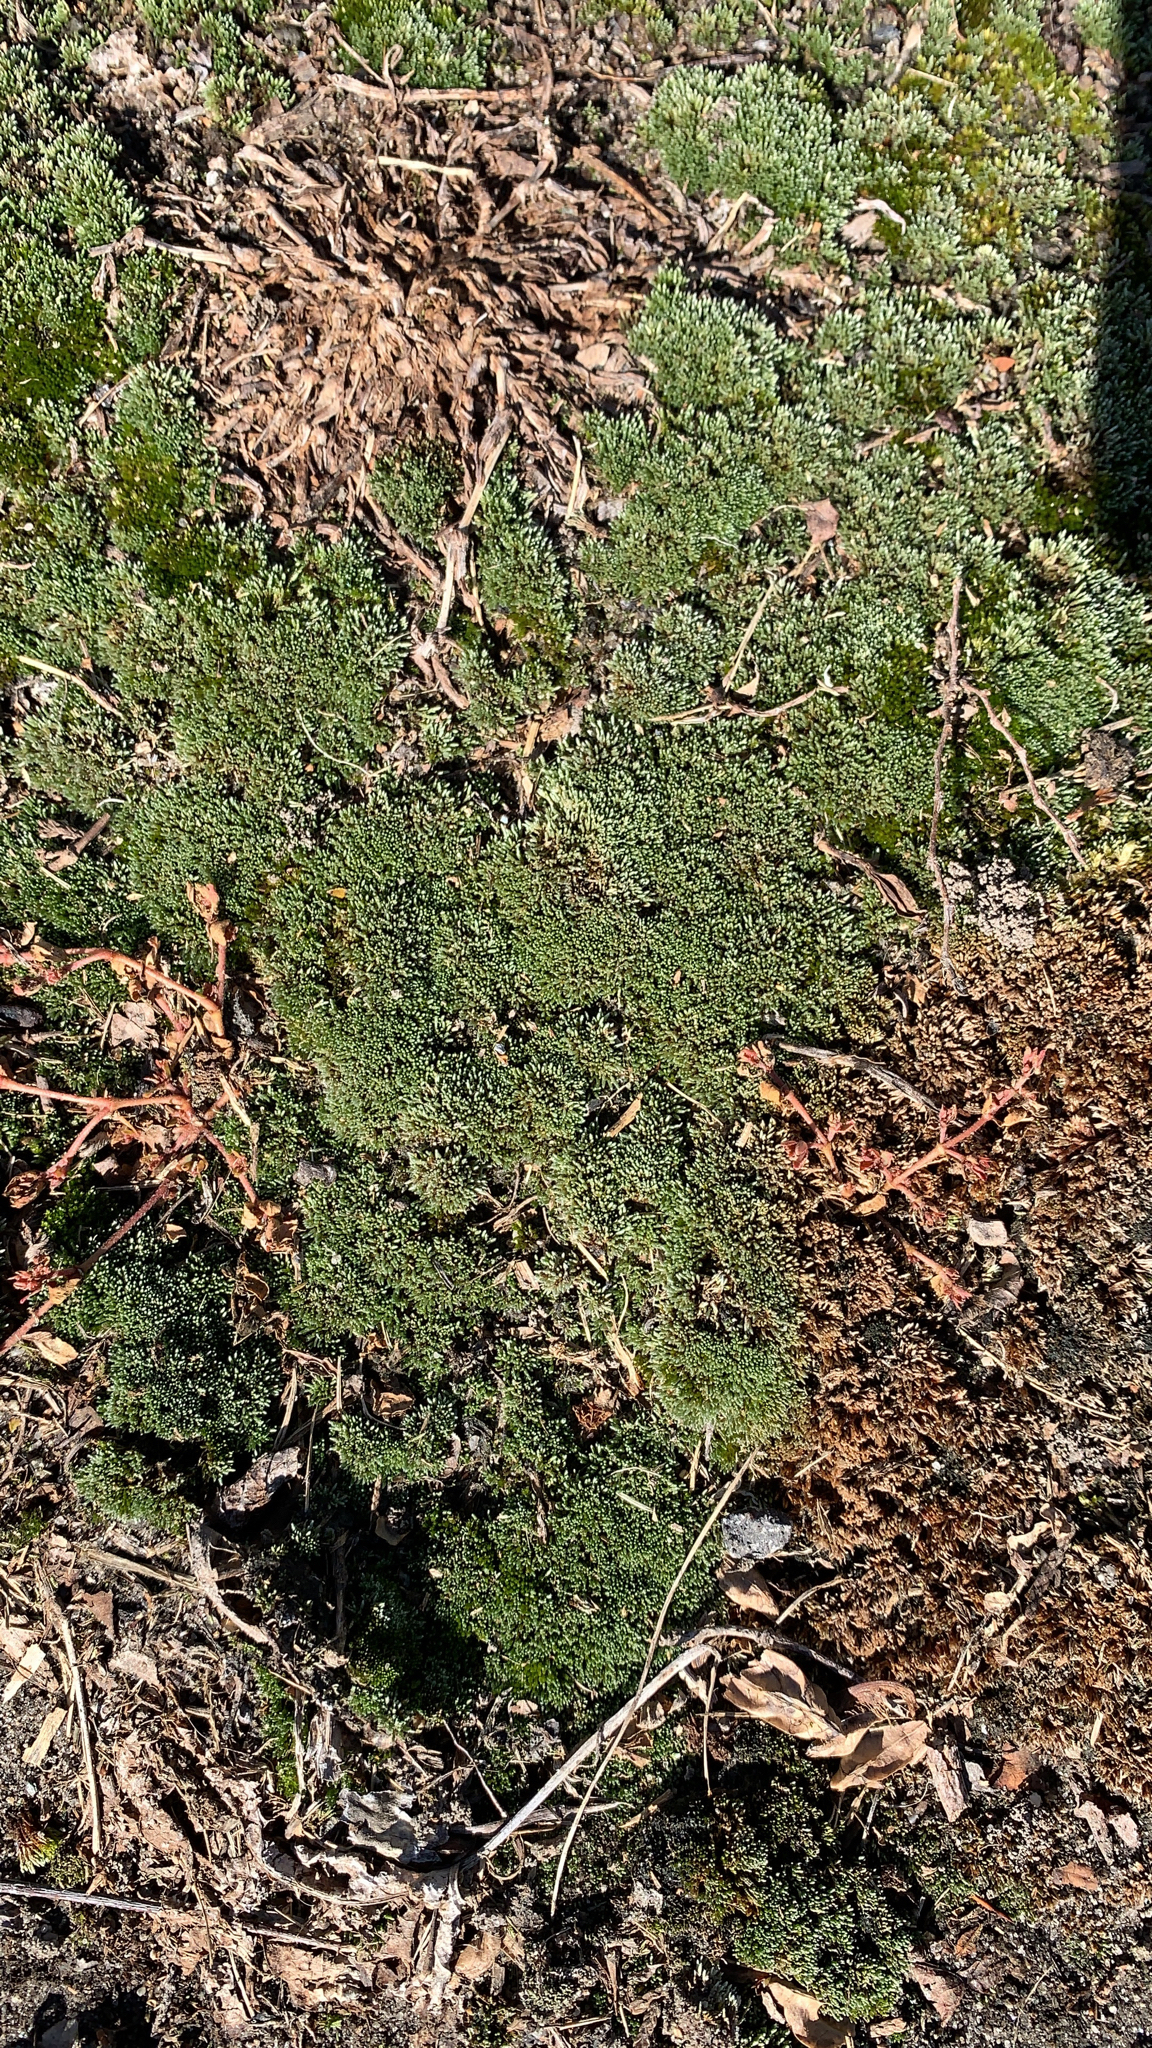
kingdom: Plantae
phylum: Bryophyta
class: Bryopsida
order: Bryales
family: Bryaceae
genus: Bryum
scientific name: Bryum argenteum
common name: Silver-moss
